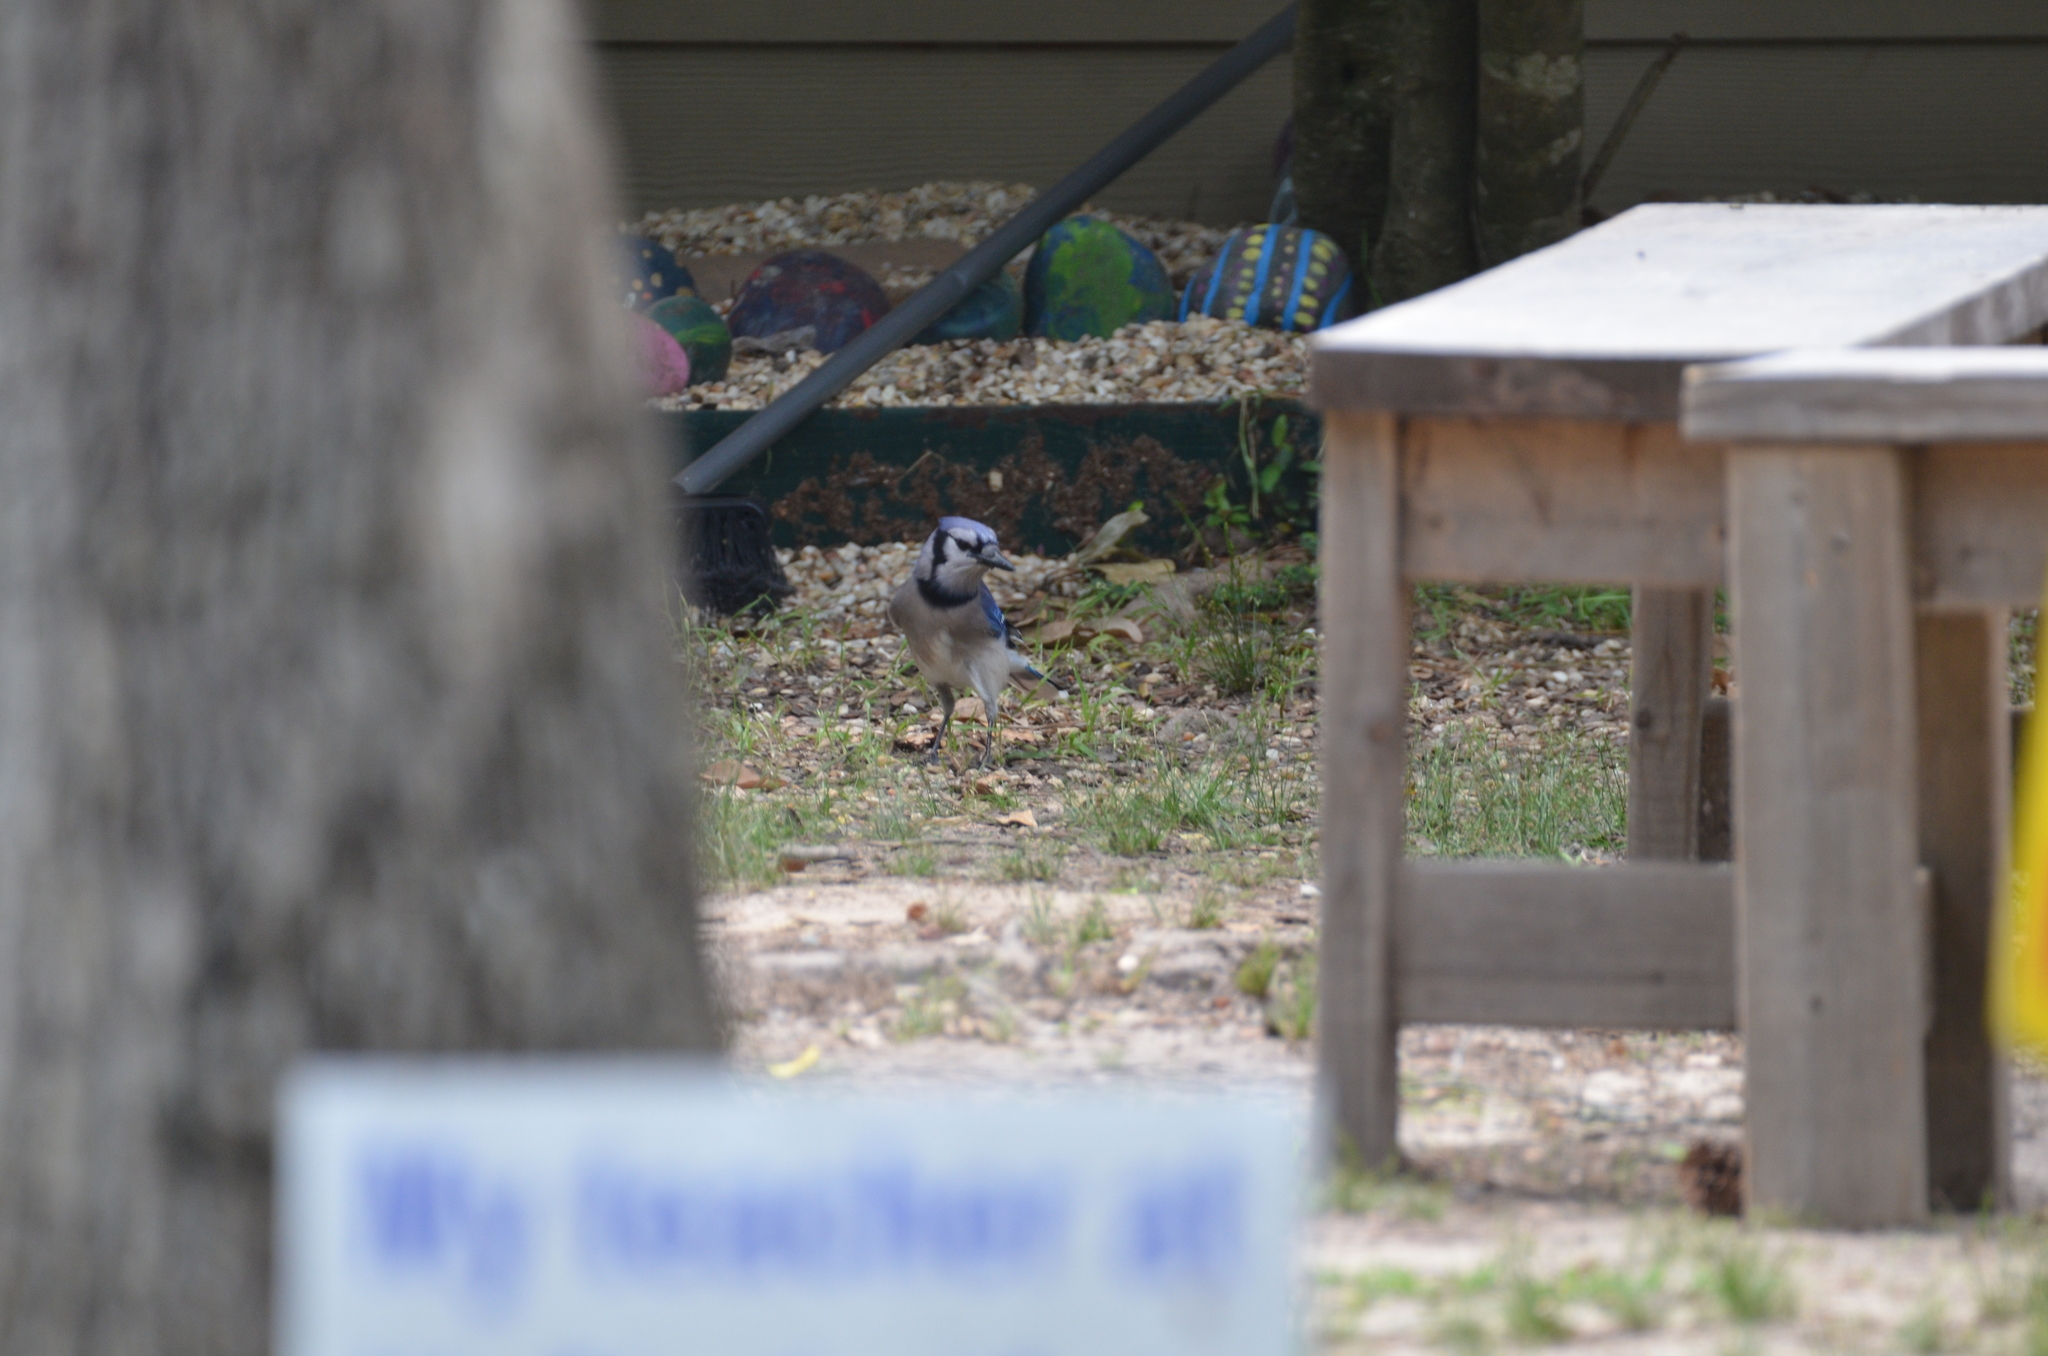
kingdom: Animalia
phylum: Chordata
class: Aves
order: Passeriformes
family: Corvidae
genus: Cyanocitta
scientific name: Cyanocitta cristata
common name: Blue jay
